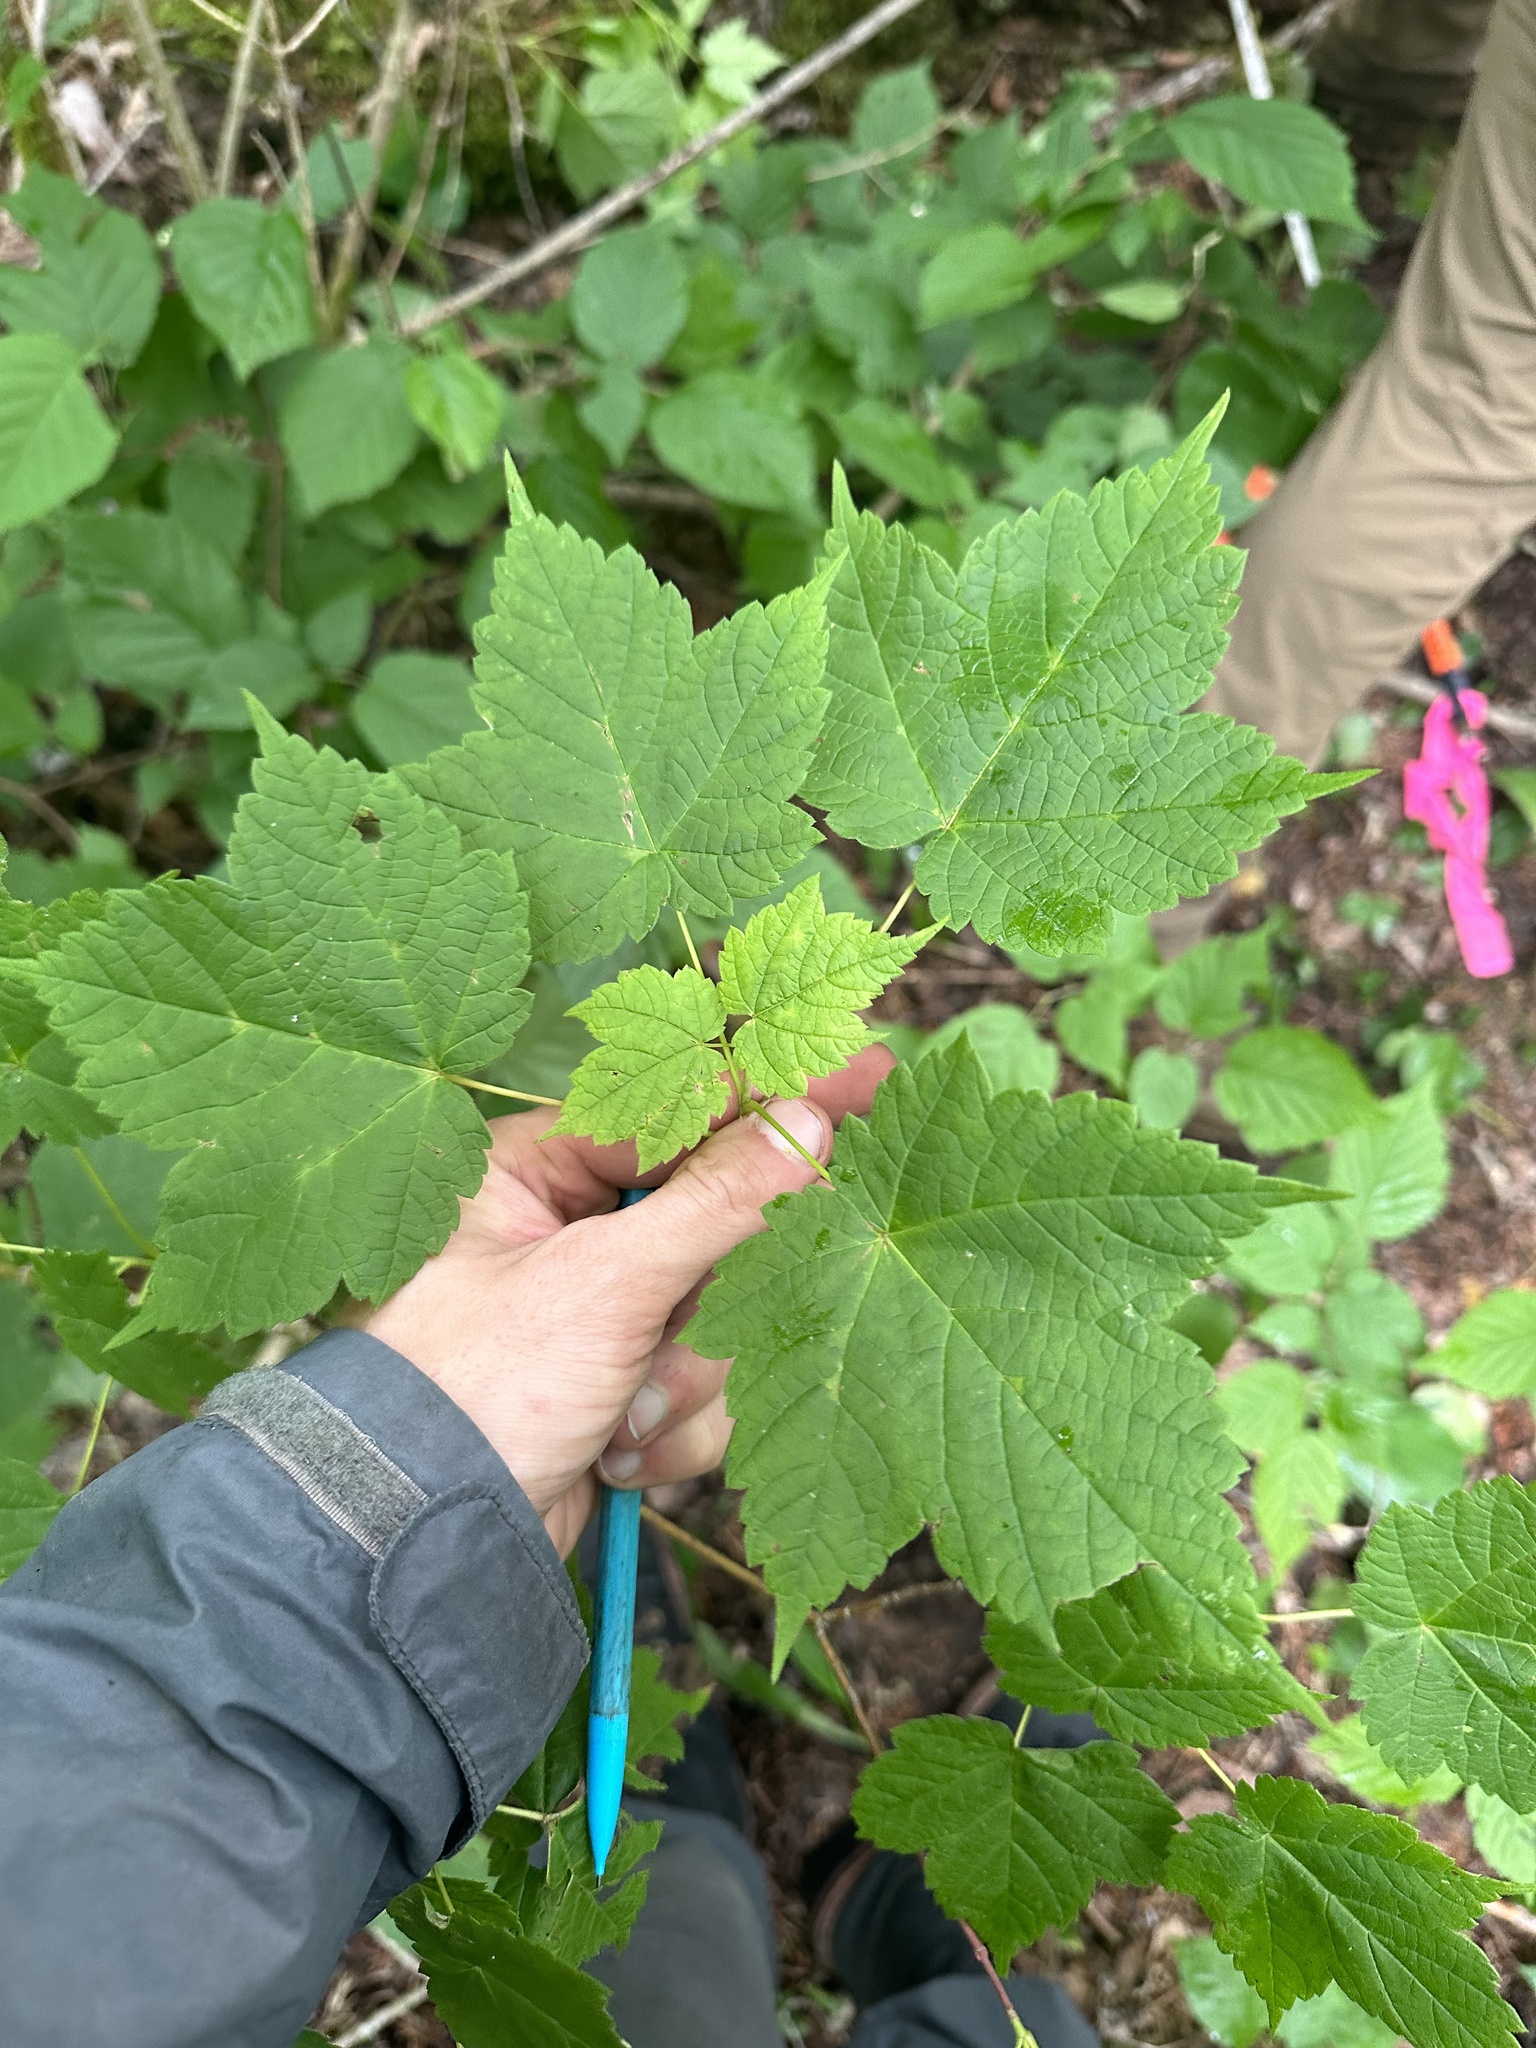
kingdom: Plantae
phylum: Tracheophyta
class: Magnoliopsida
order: Sapindales
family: Sapindaceae
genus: Acer
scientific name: Acer spicatum
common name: Mountain maple
